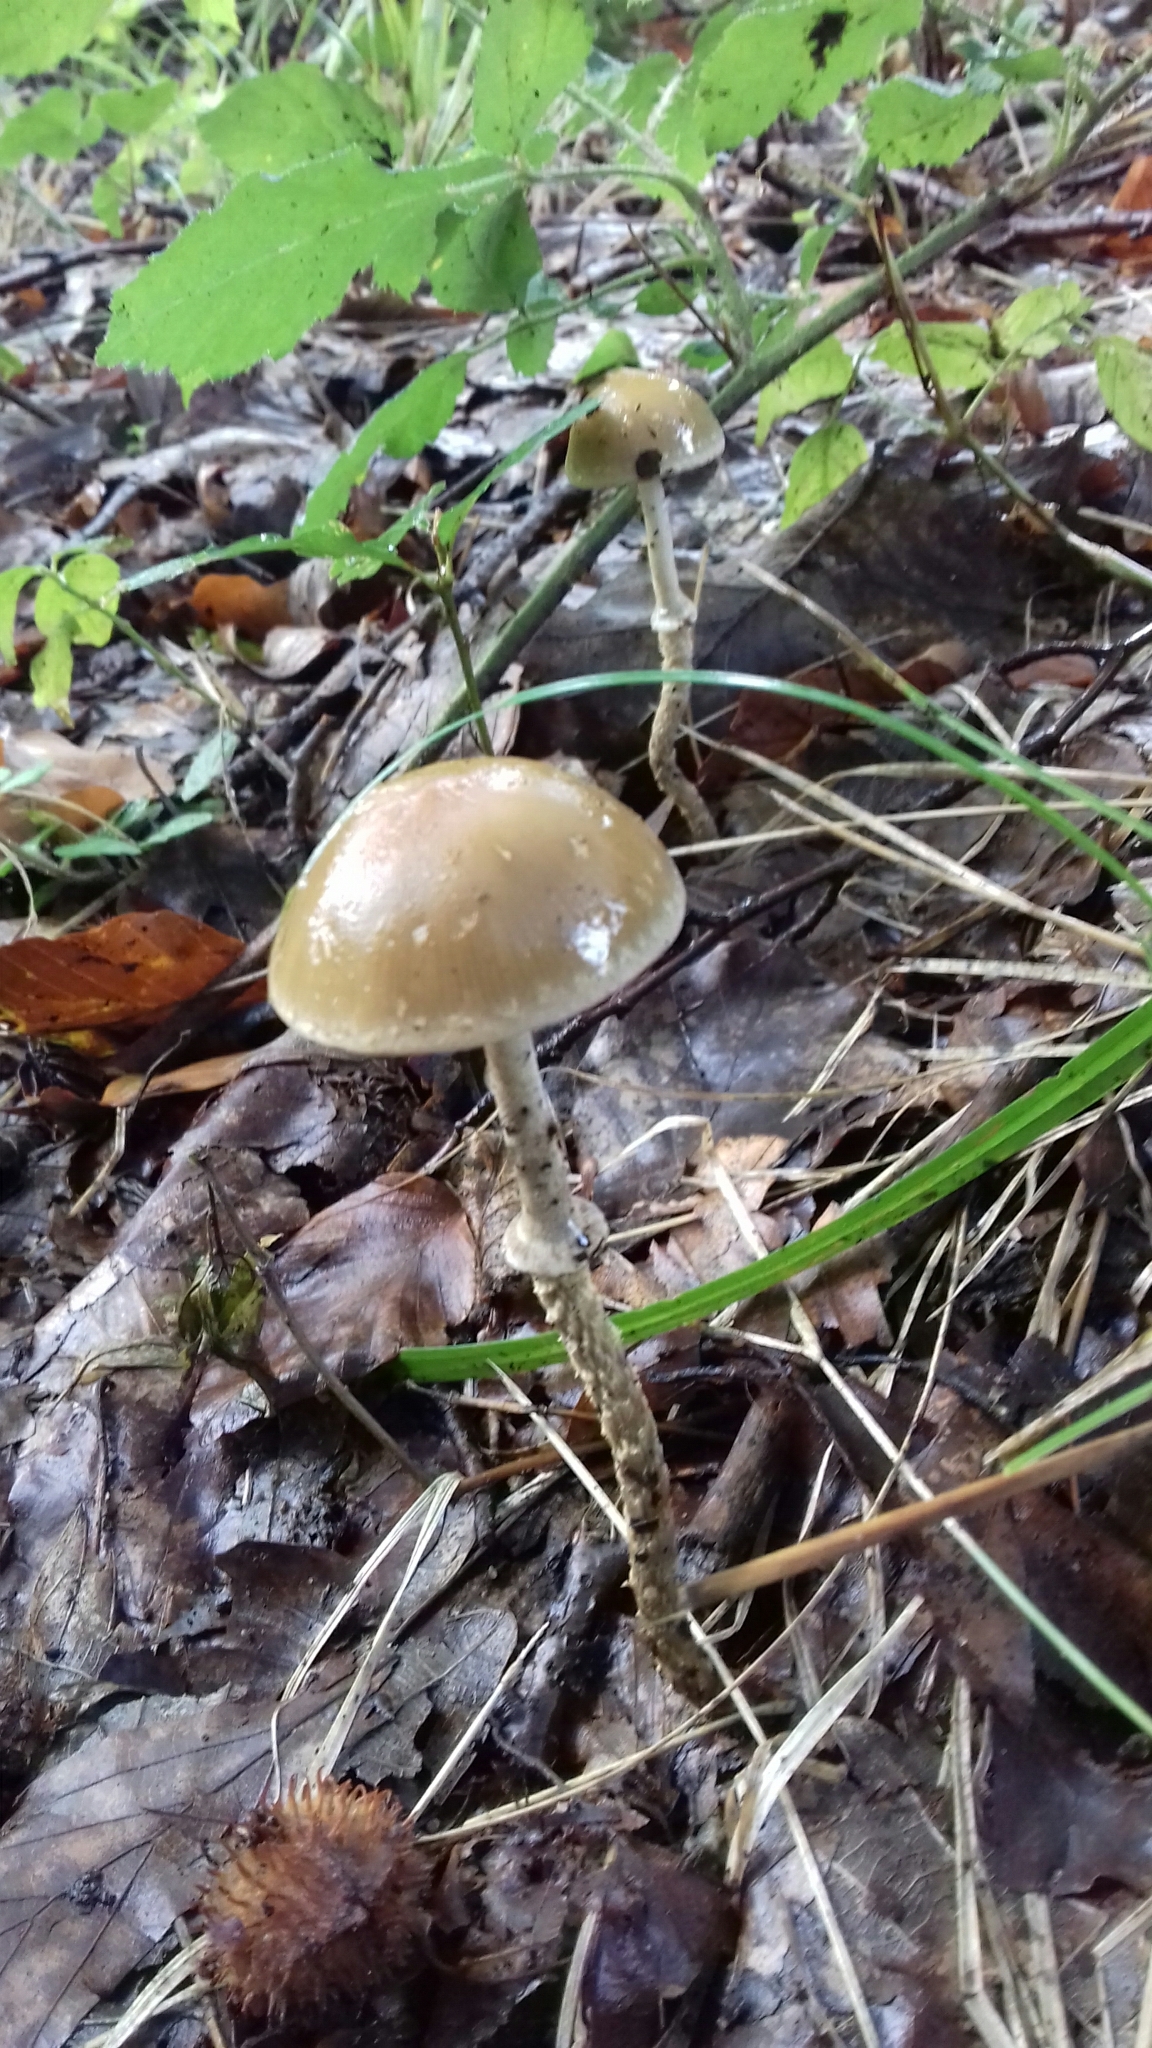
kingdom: Fungi
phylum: Basidiomycota
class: Agaricomycetes
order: Agaricales
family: Strophariaceae
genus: Leratiomyces
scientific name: Leratiomyces squamosus
